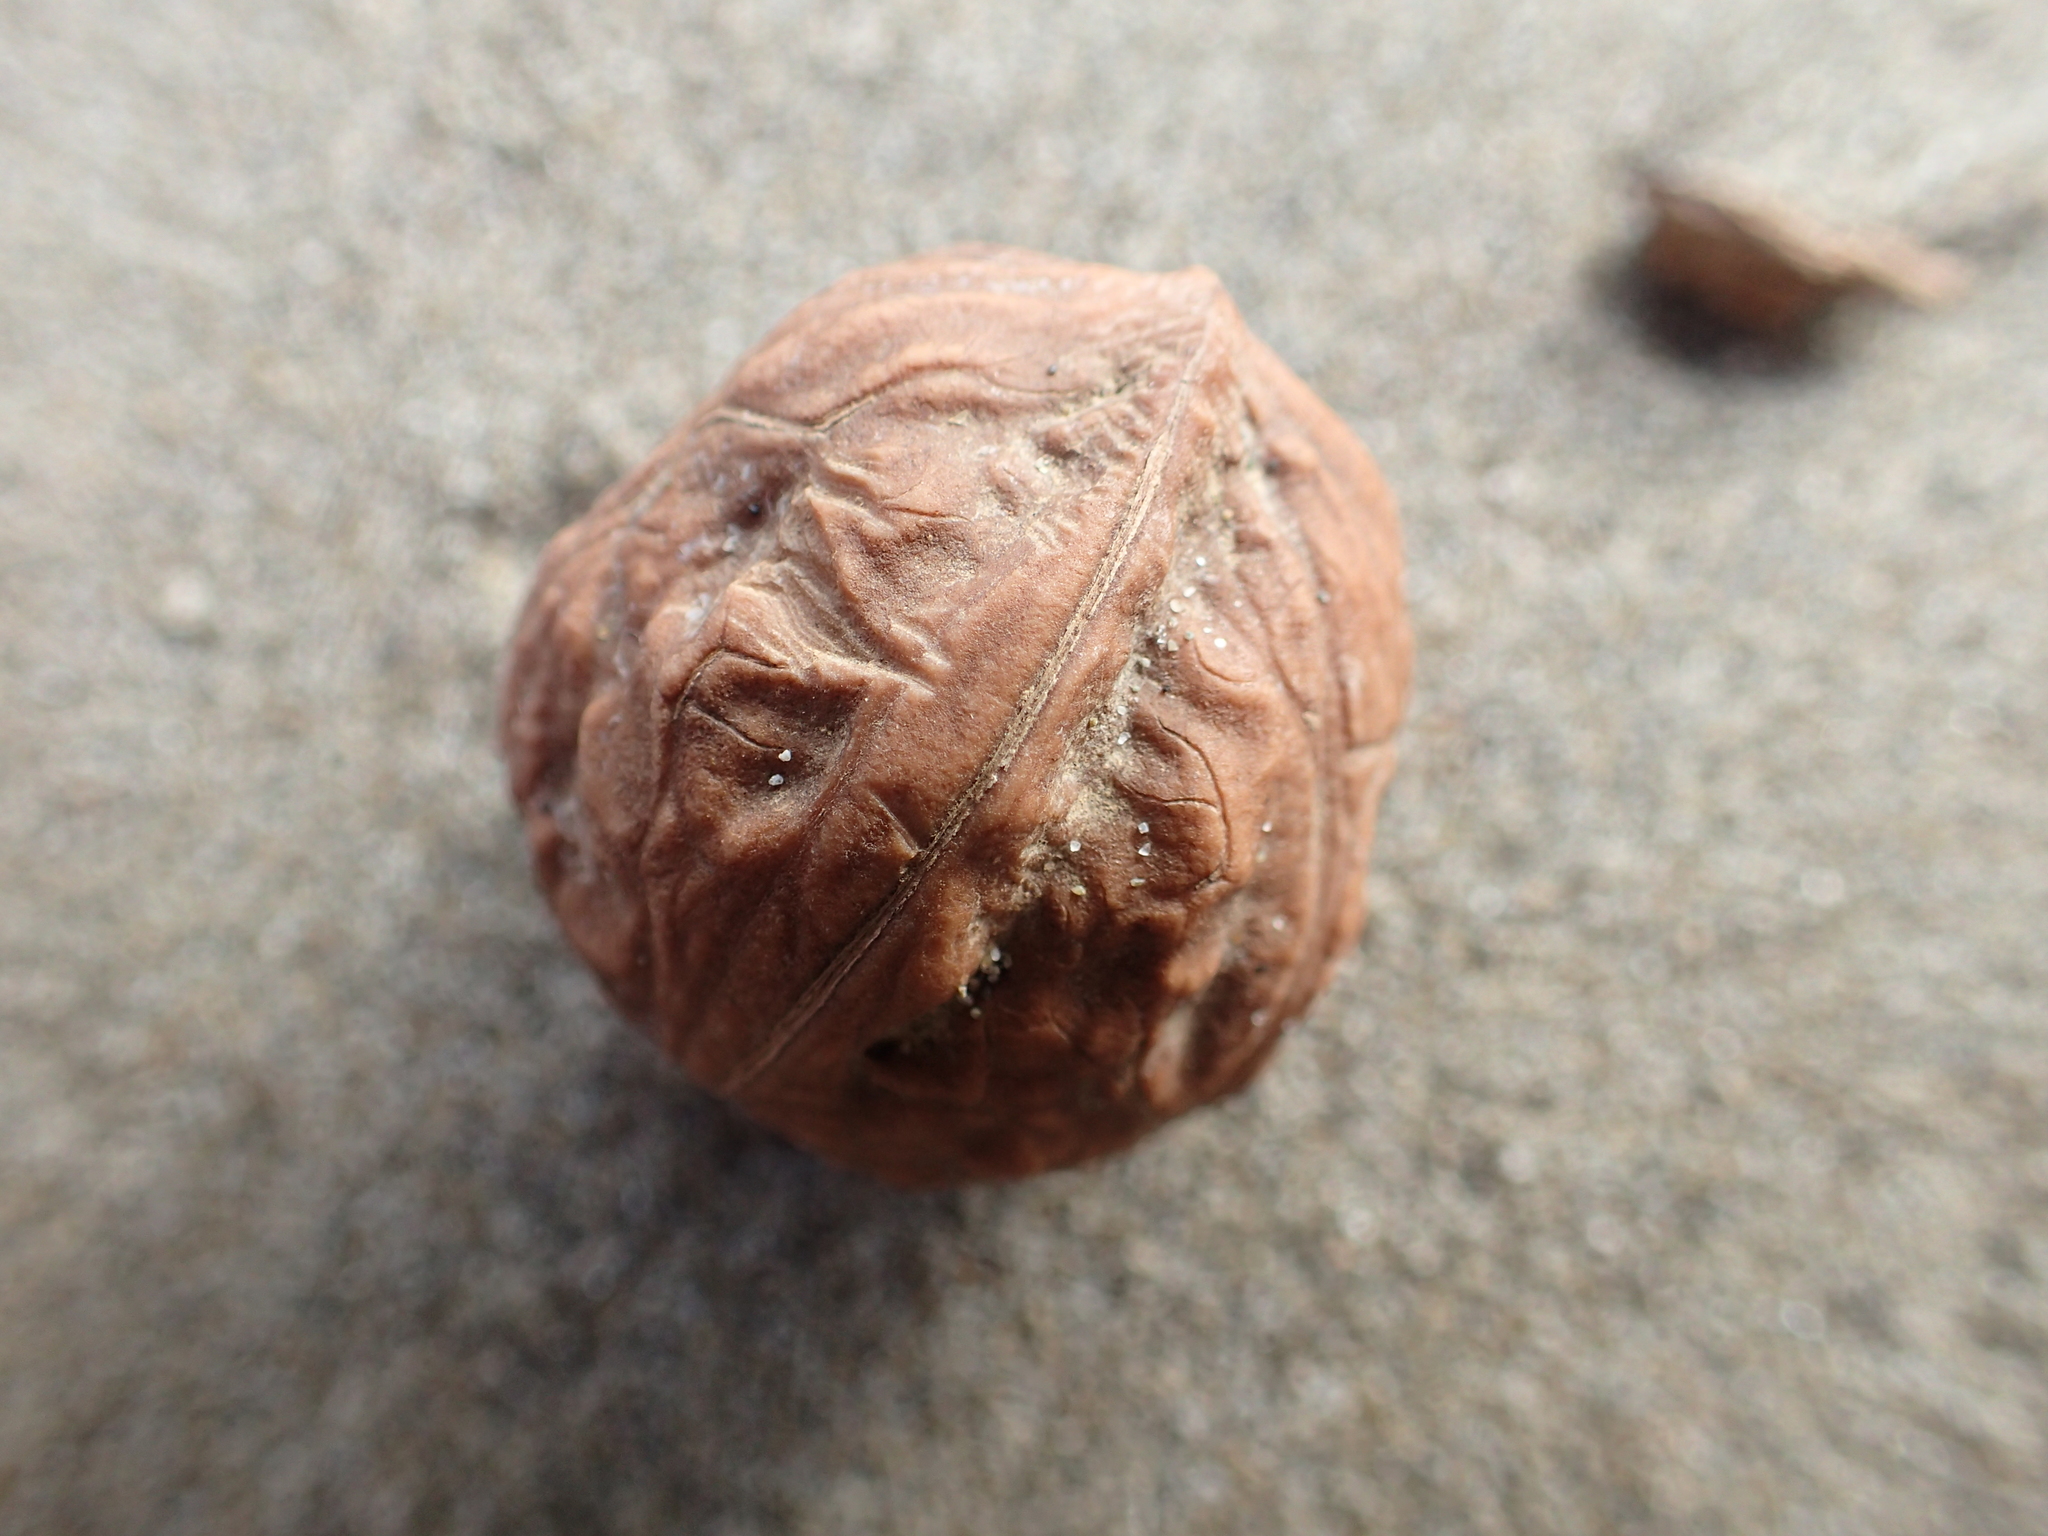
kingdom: Plantae
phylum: Tracheophyta
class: Magnoliopsida
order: Fagales
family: Juglandaceae
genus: Juglans
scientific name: Juglans regia
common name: Walnut
